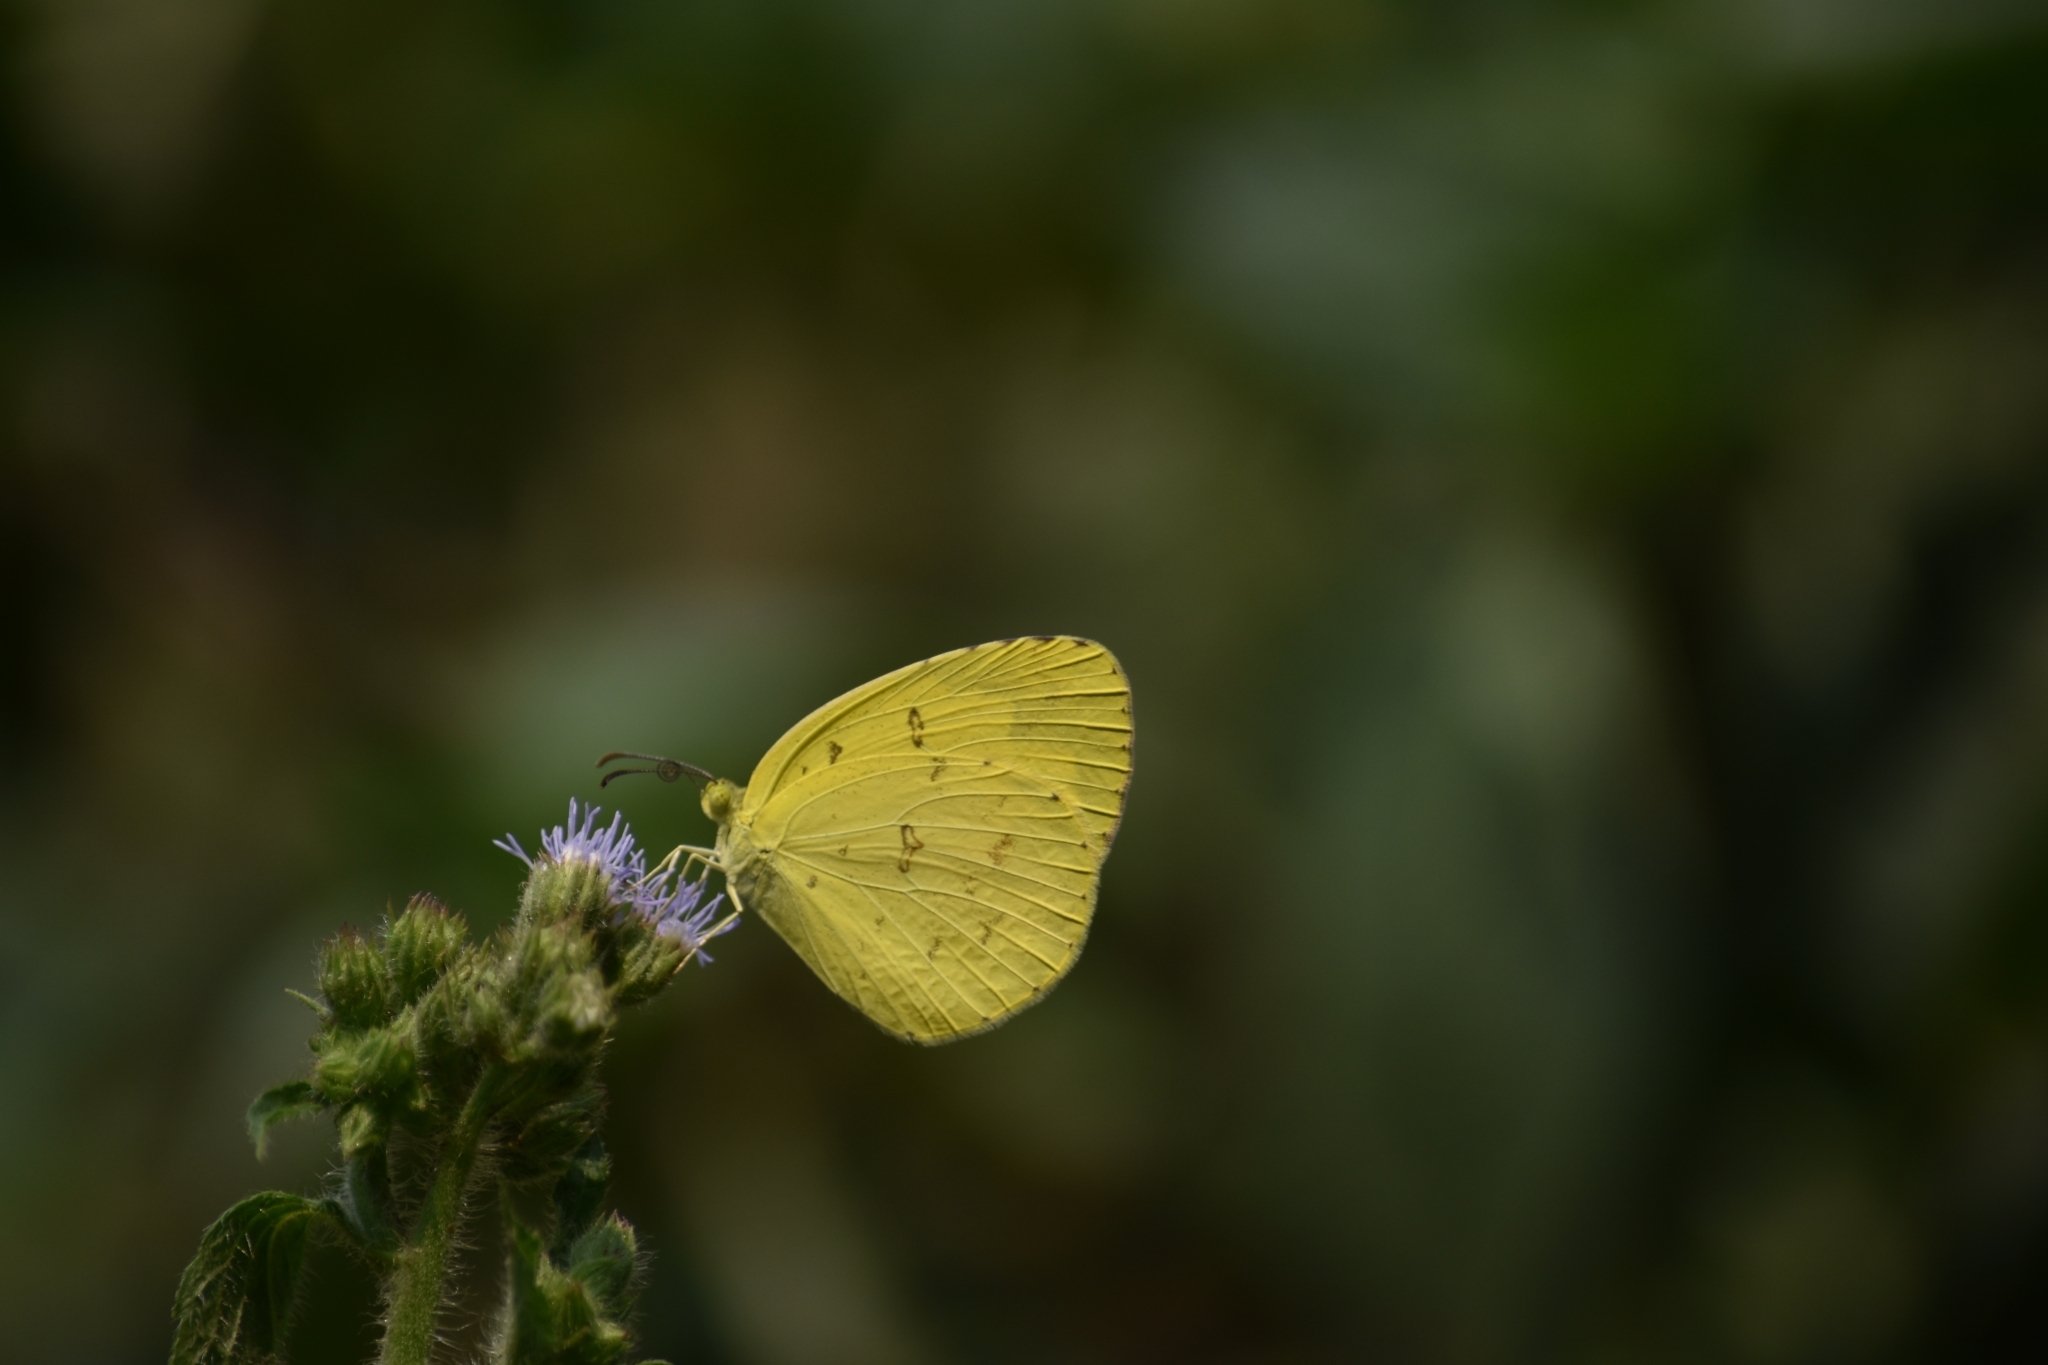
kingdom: Animalia
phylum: Arthropoda
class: Insecta
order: Lepidoptera
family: Pieridae
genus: Eurema
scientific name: Eurema hecabe
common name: Pale grass yellow
